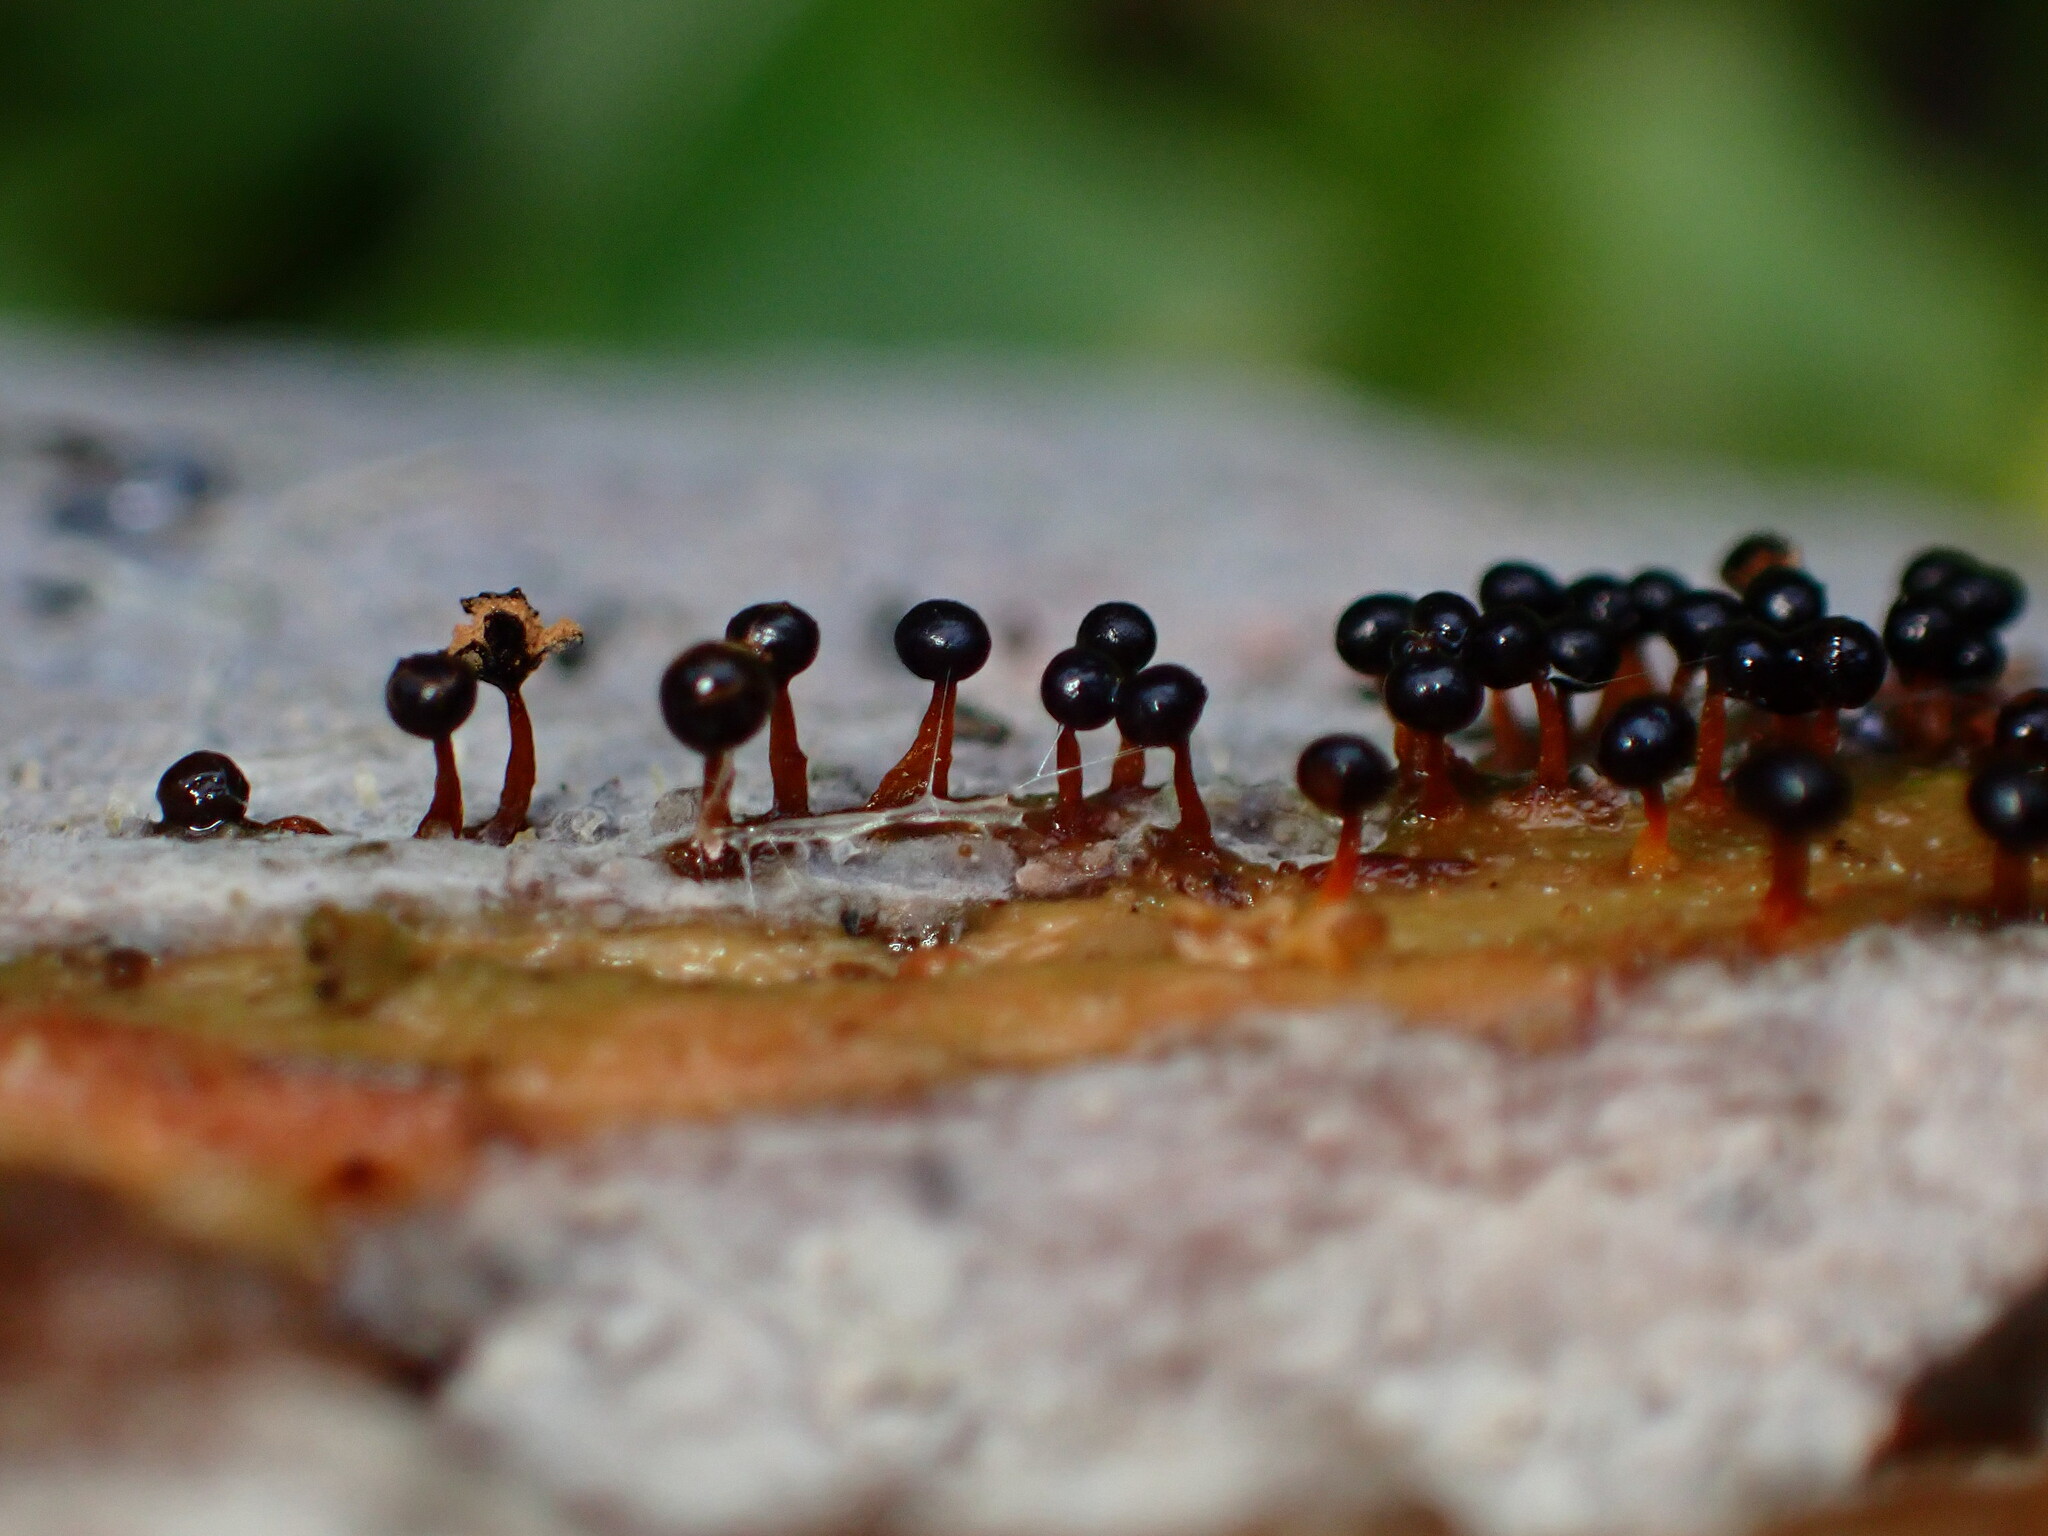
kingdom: Protozoa
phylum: Mycetozoa
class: Myxomycetes
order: Trichiales
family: Trichiaceae
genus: Metatrichia
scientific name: Metatrichia floriformis
